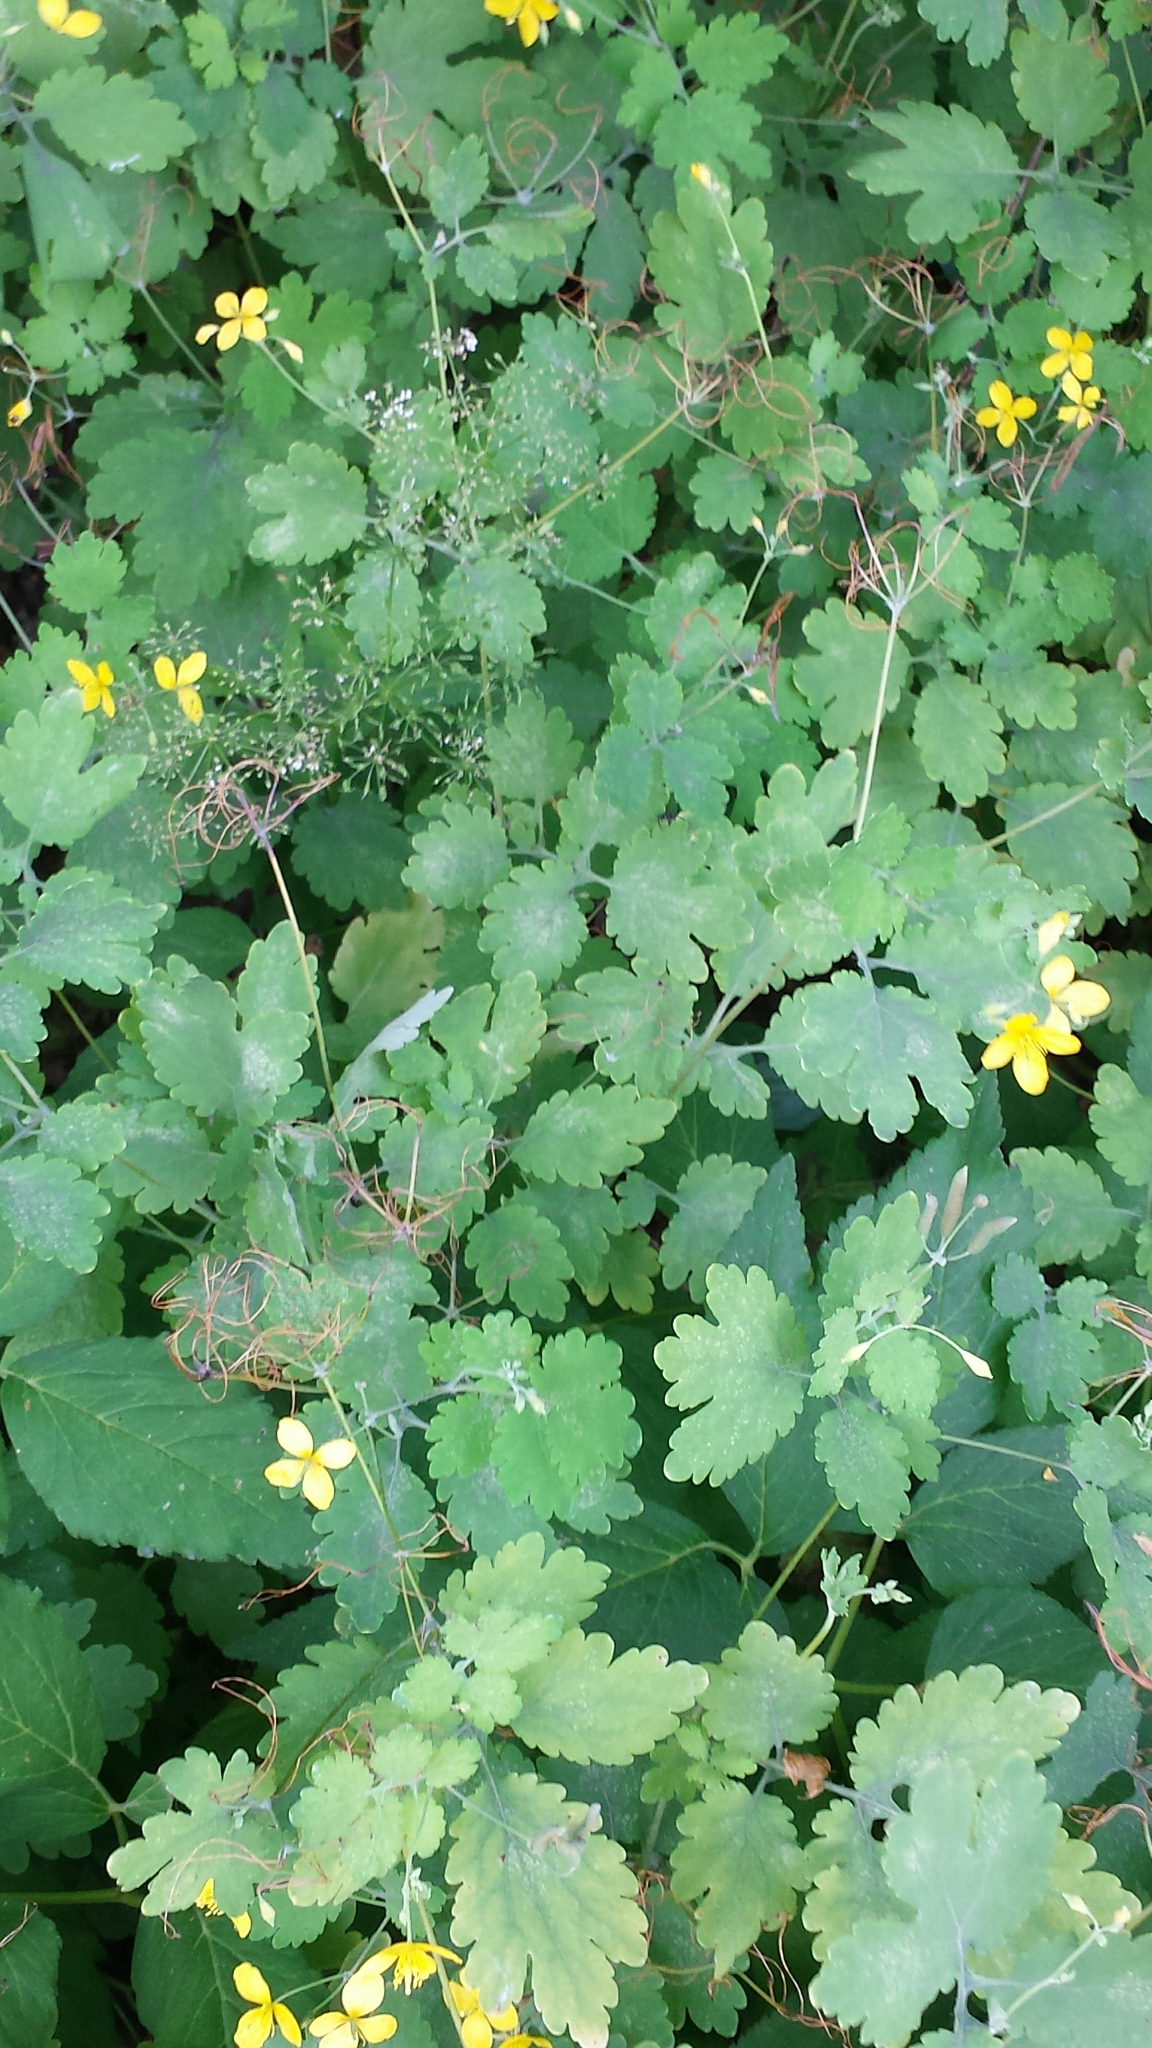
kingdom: Plantae
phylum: Tracheophyta
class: Magnoliopsida
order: Ranunculales
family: Papaveraceae
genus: Chelidonium
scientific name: Chelidonium majus
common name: Greater celandine
